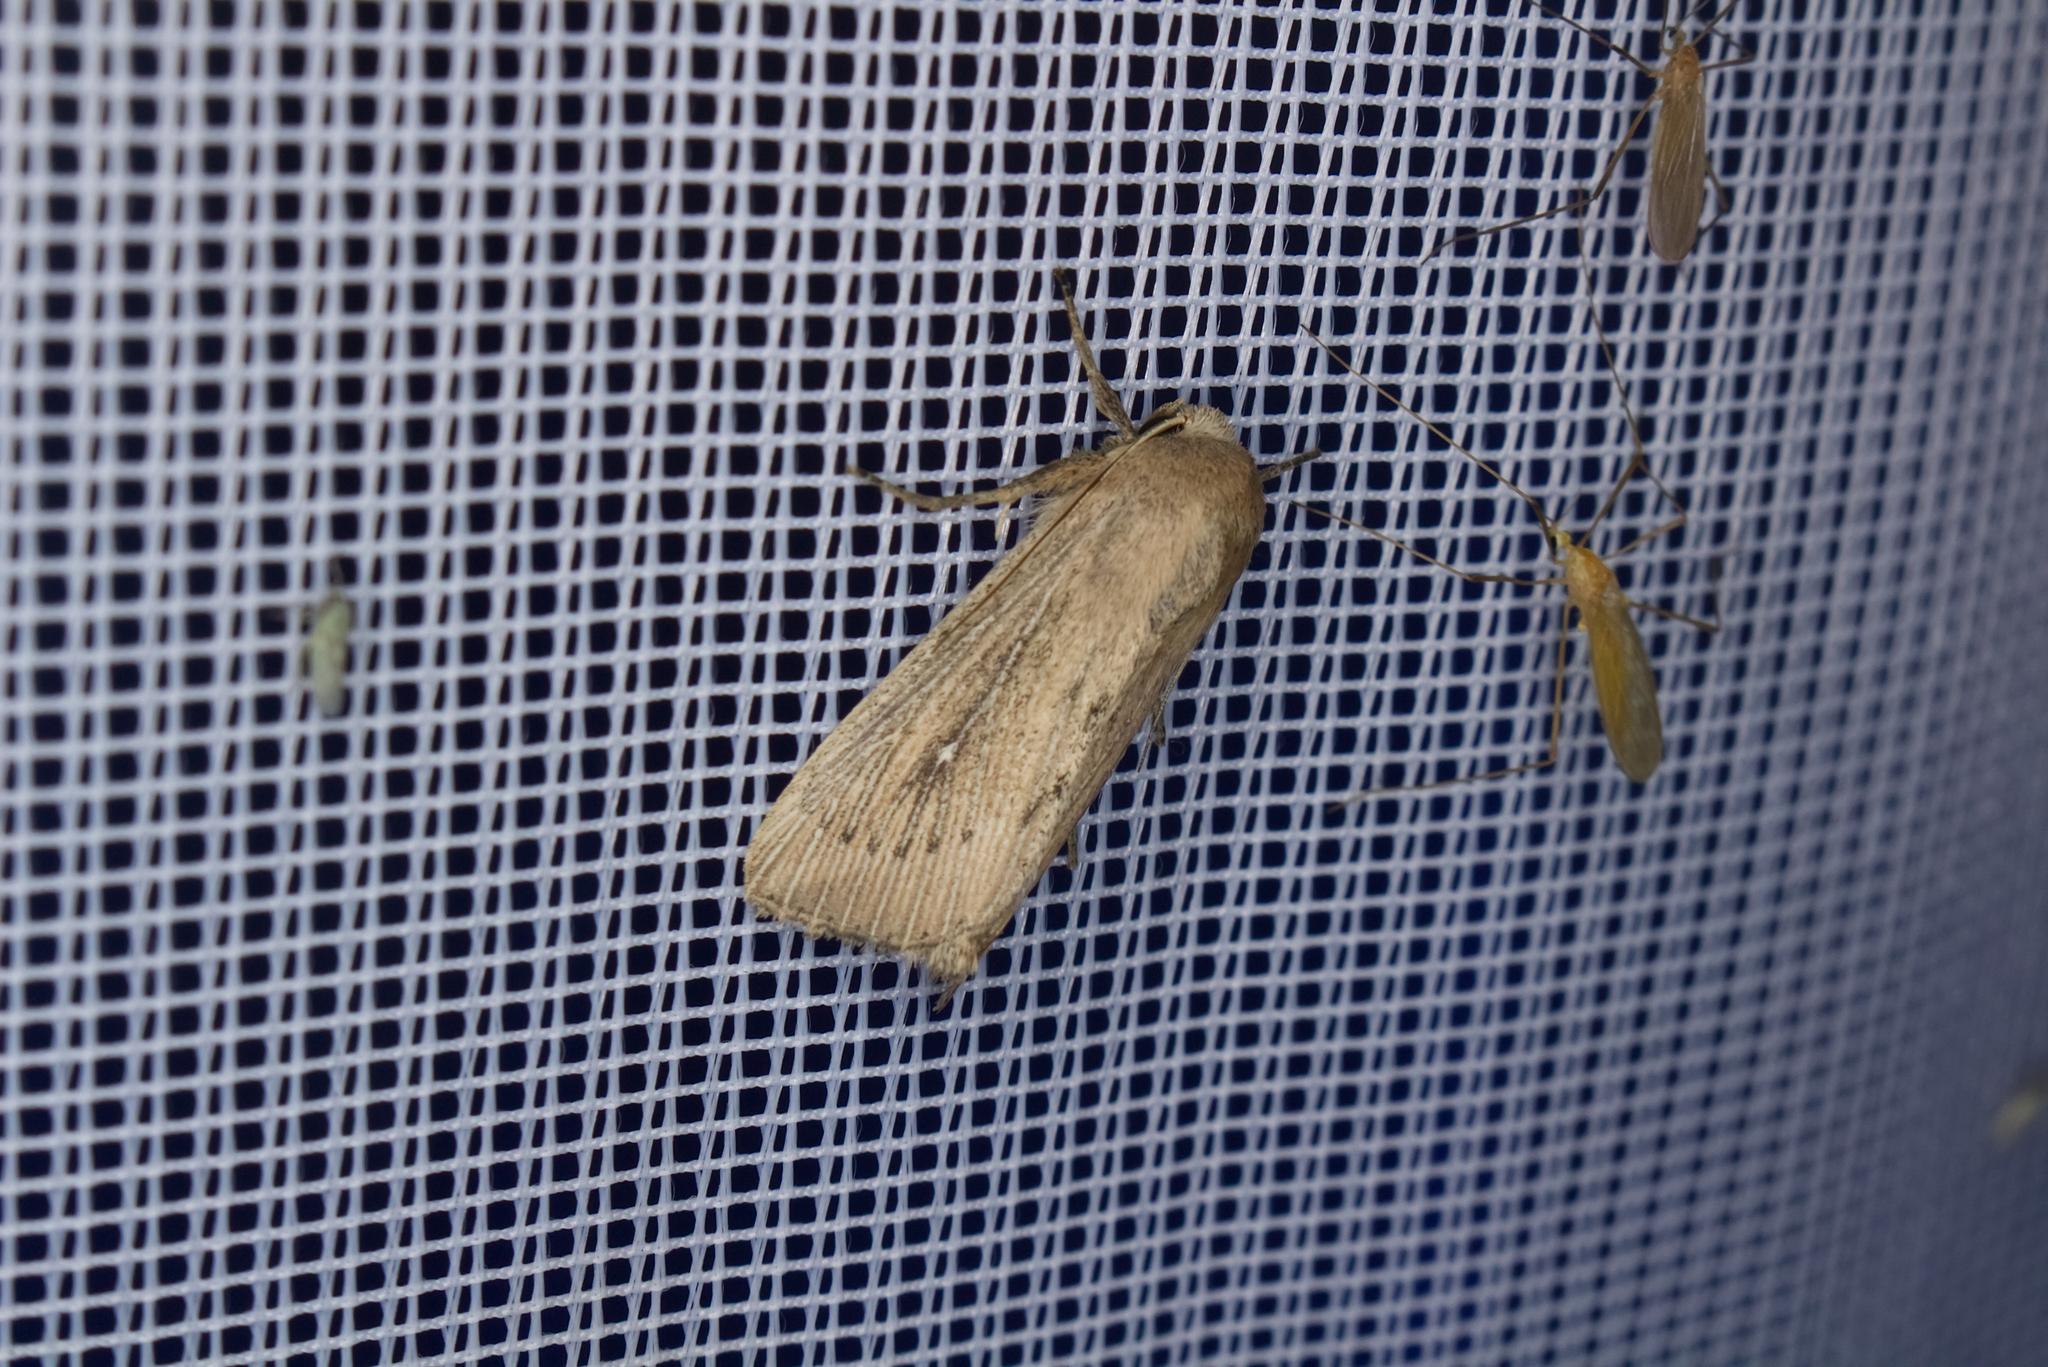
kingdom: Animalia
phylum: Arthropoda
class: Insecta
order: Lepidoptera
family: Noctuidae
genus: Leucania
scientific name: Leucania obsoleta
